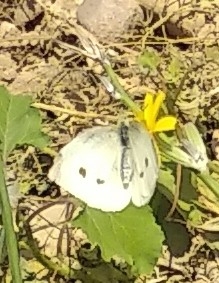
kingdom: Animalia
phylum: Arthropoda
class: Insecta
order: Lepidoptera
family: Pieridae
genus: Pieris
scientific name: Pieris rapae
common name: Small white
